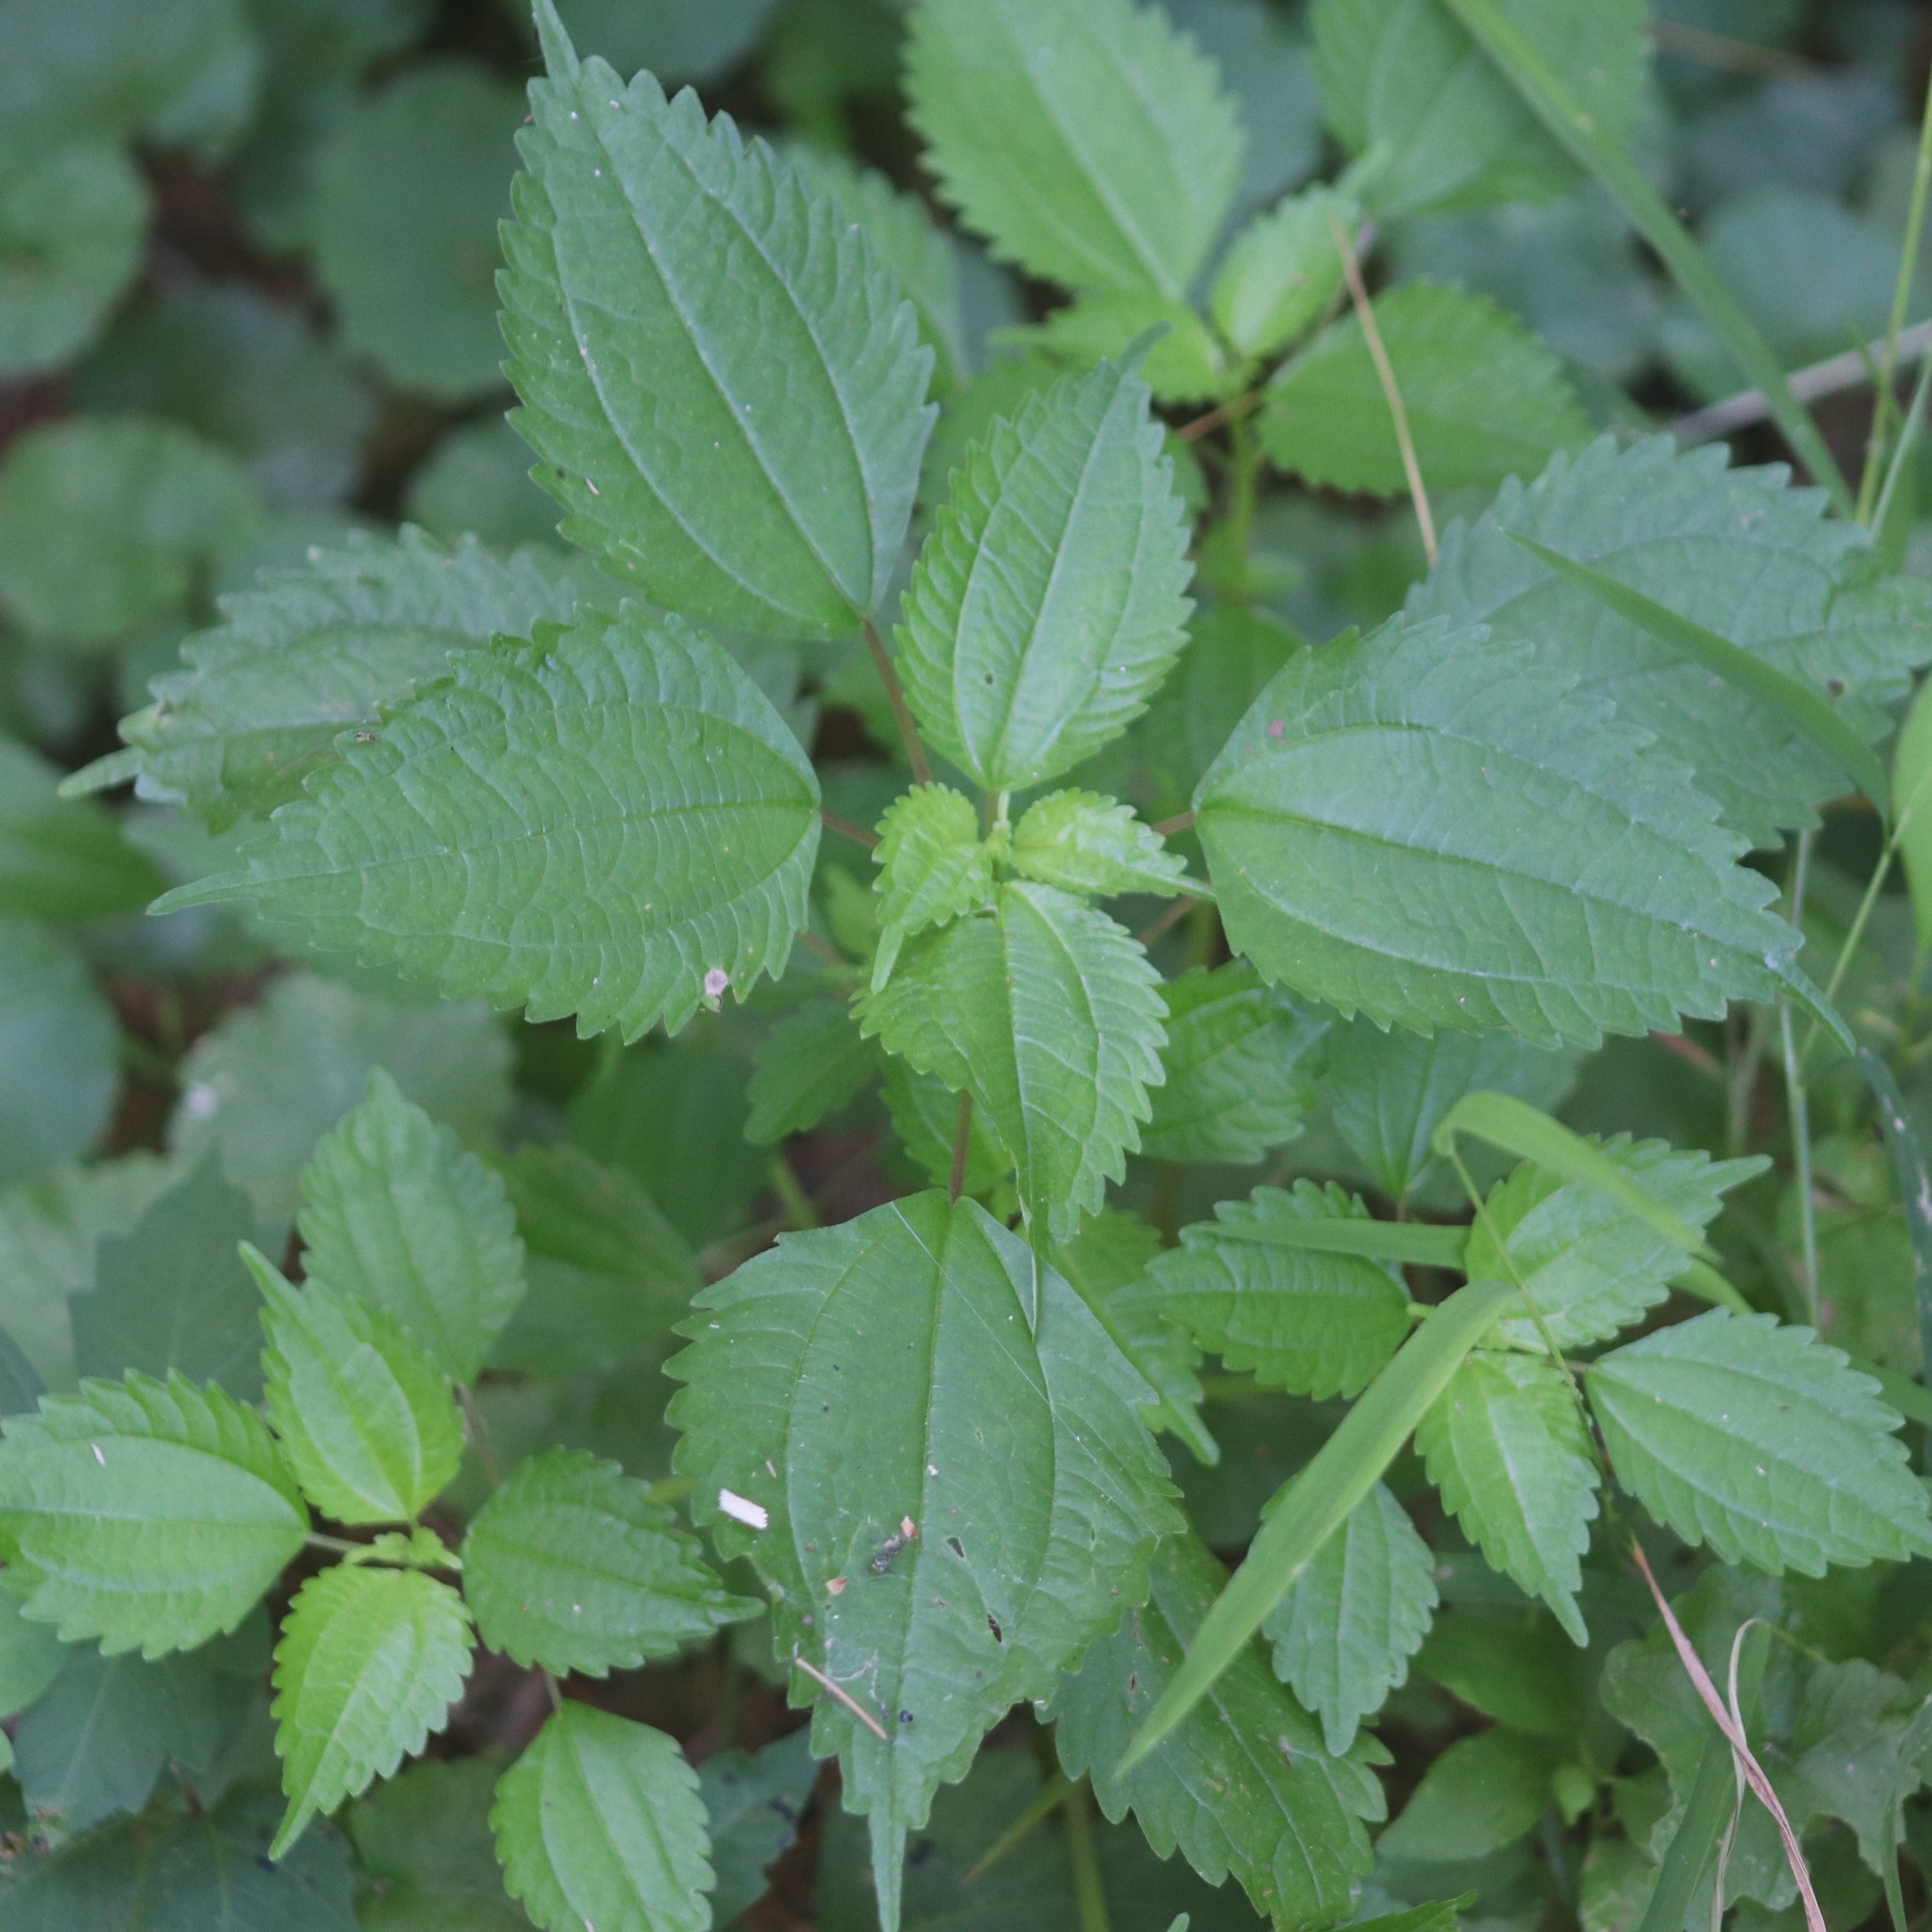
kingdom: Plantae
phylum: Tracheophyta
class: Magnoliopsida
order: Rosales
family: Urticaceae
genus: Pilea
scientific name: Pilea pumila
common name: Clearweed
